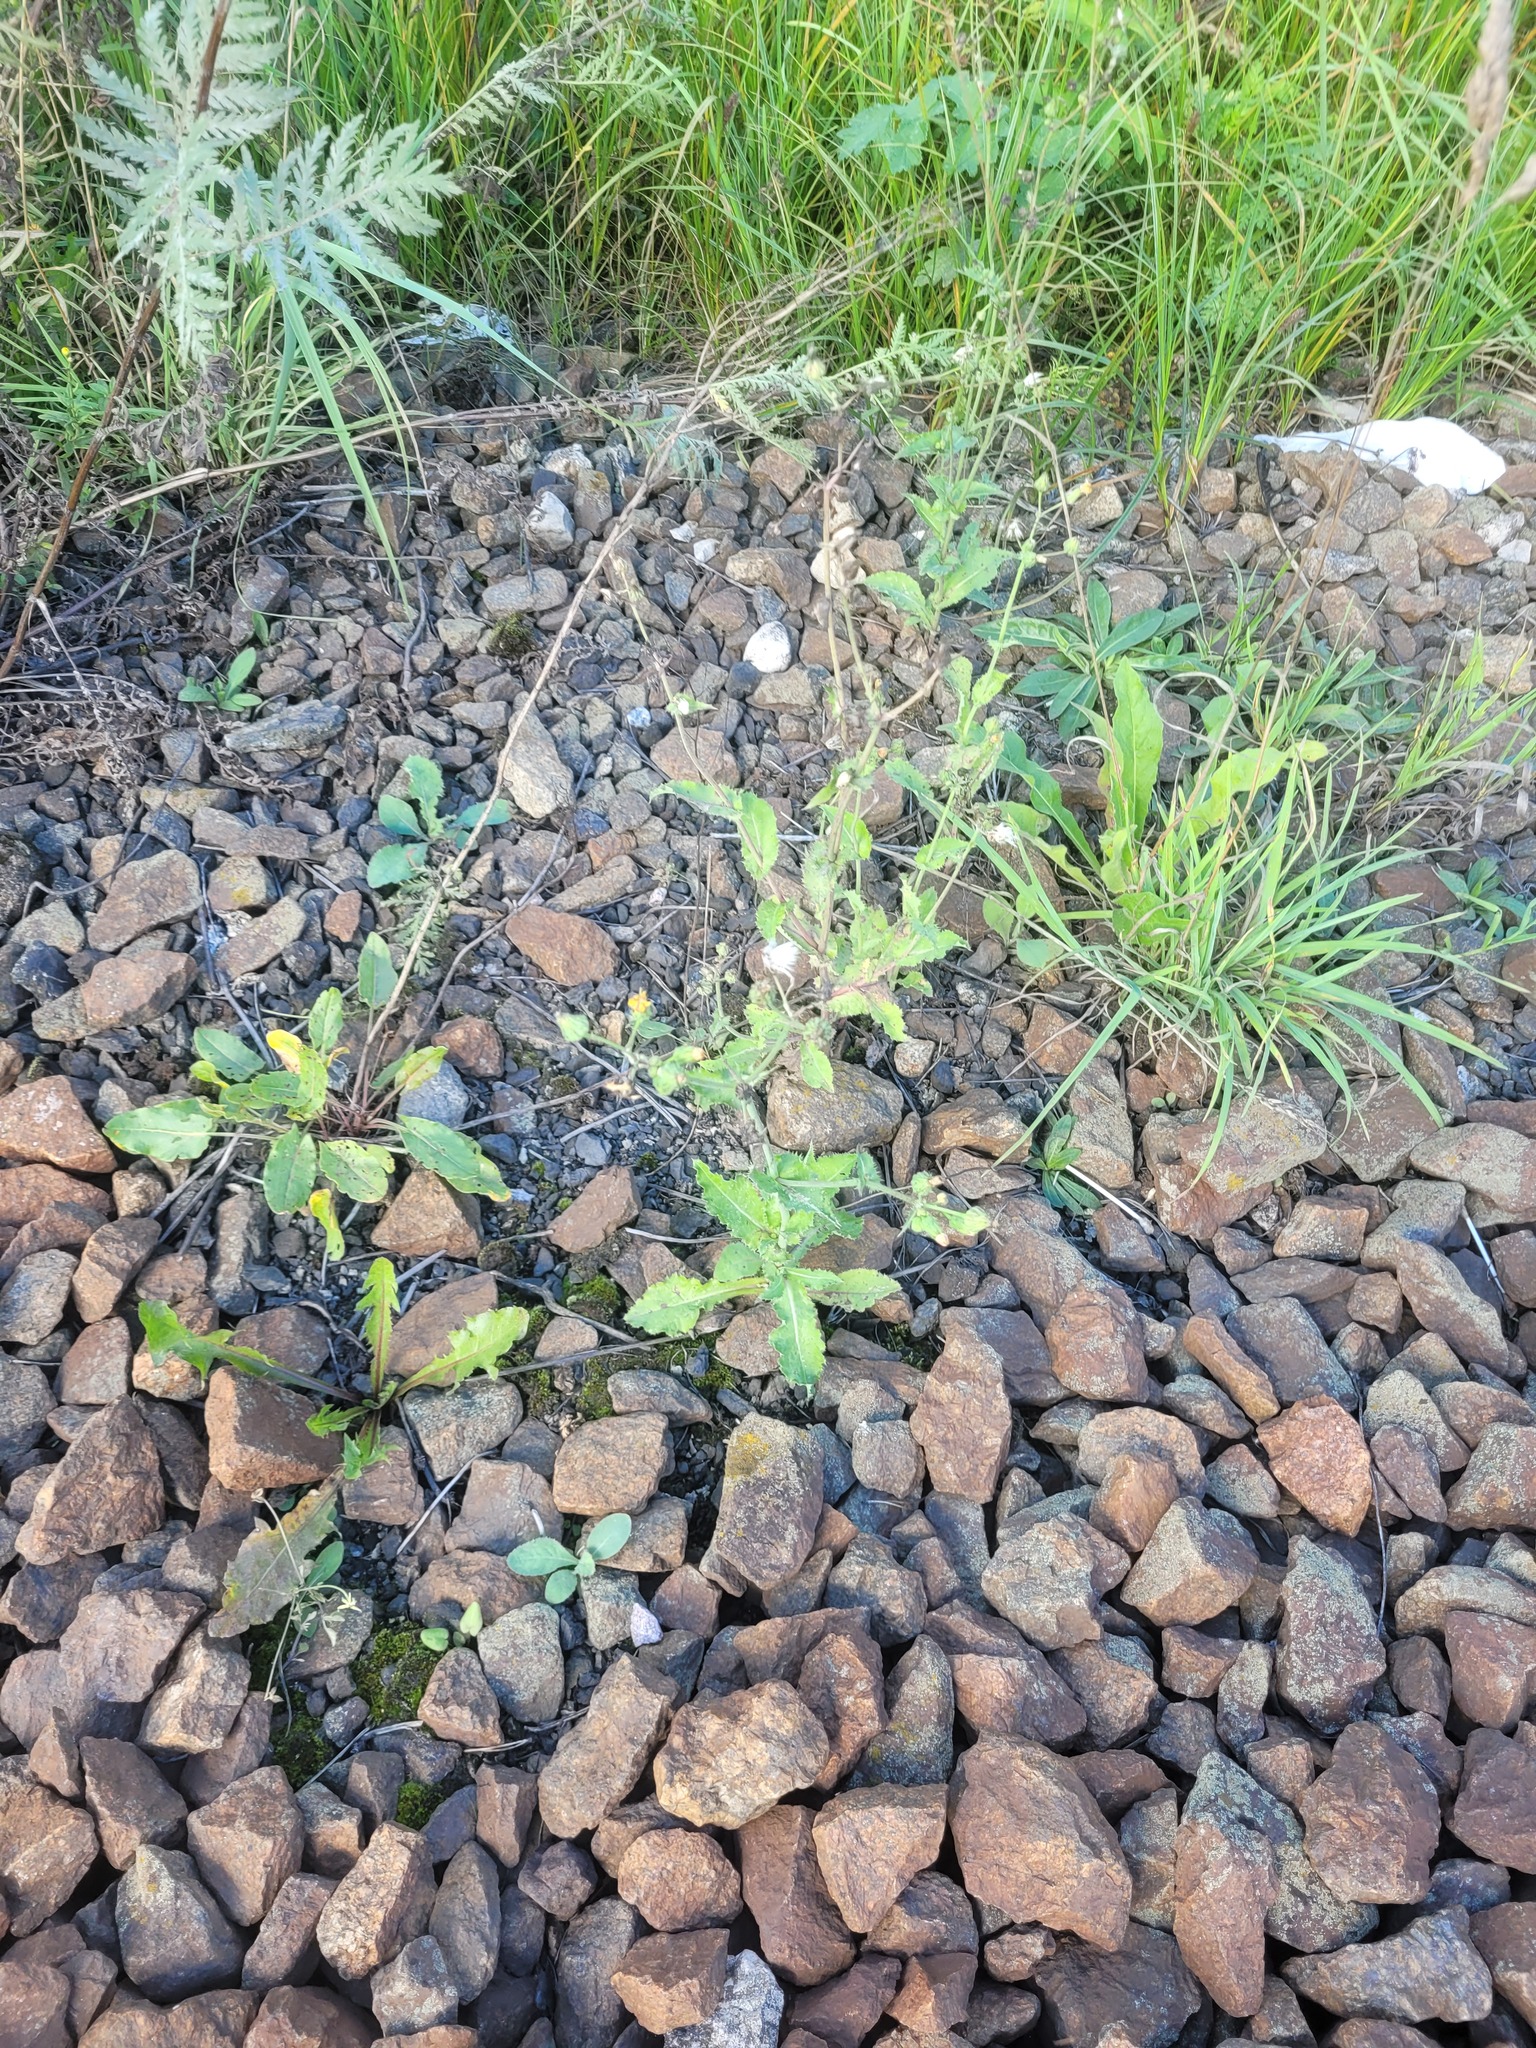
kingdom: Plantae
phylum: Tracheophyta
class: Magnoliopsida
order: Asterales
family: Asteraceae
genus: Sonchus
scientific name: Sonchus asper
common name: Prickly sow-thistle
